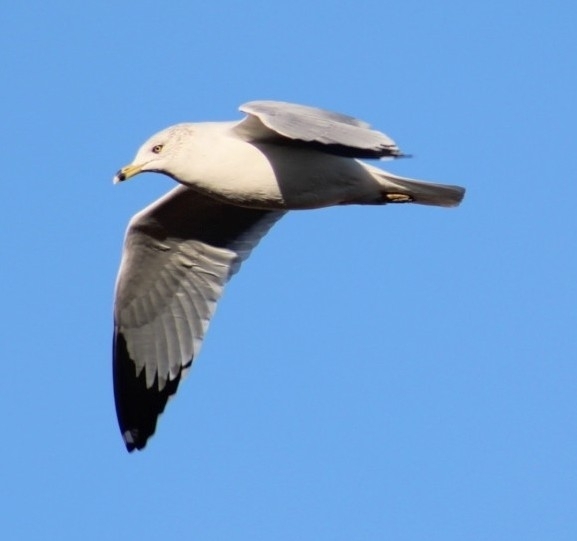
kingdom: Animalia
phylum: Chordata
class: Aves
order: Charadriiformes
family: Laridae
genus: Larus
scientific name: Larus delawarensis
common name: Ring-billed gull
